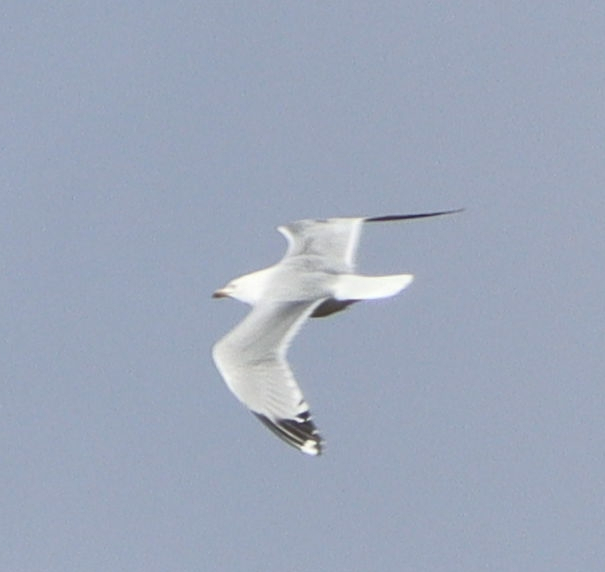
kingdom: Animalia
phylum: Chordata
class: Aves
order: Charadriiformes
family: Laridae
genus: Larus
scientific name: Larus delawarensis
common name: Ring-billed gull
